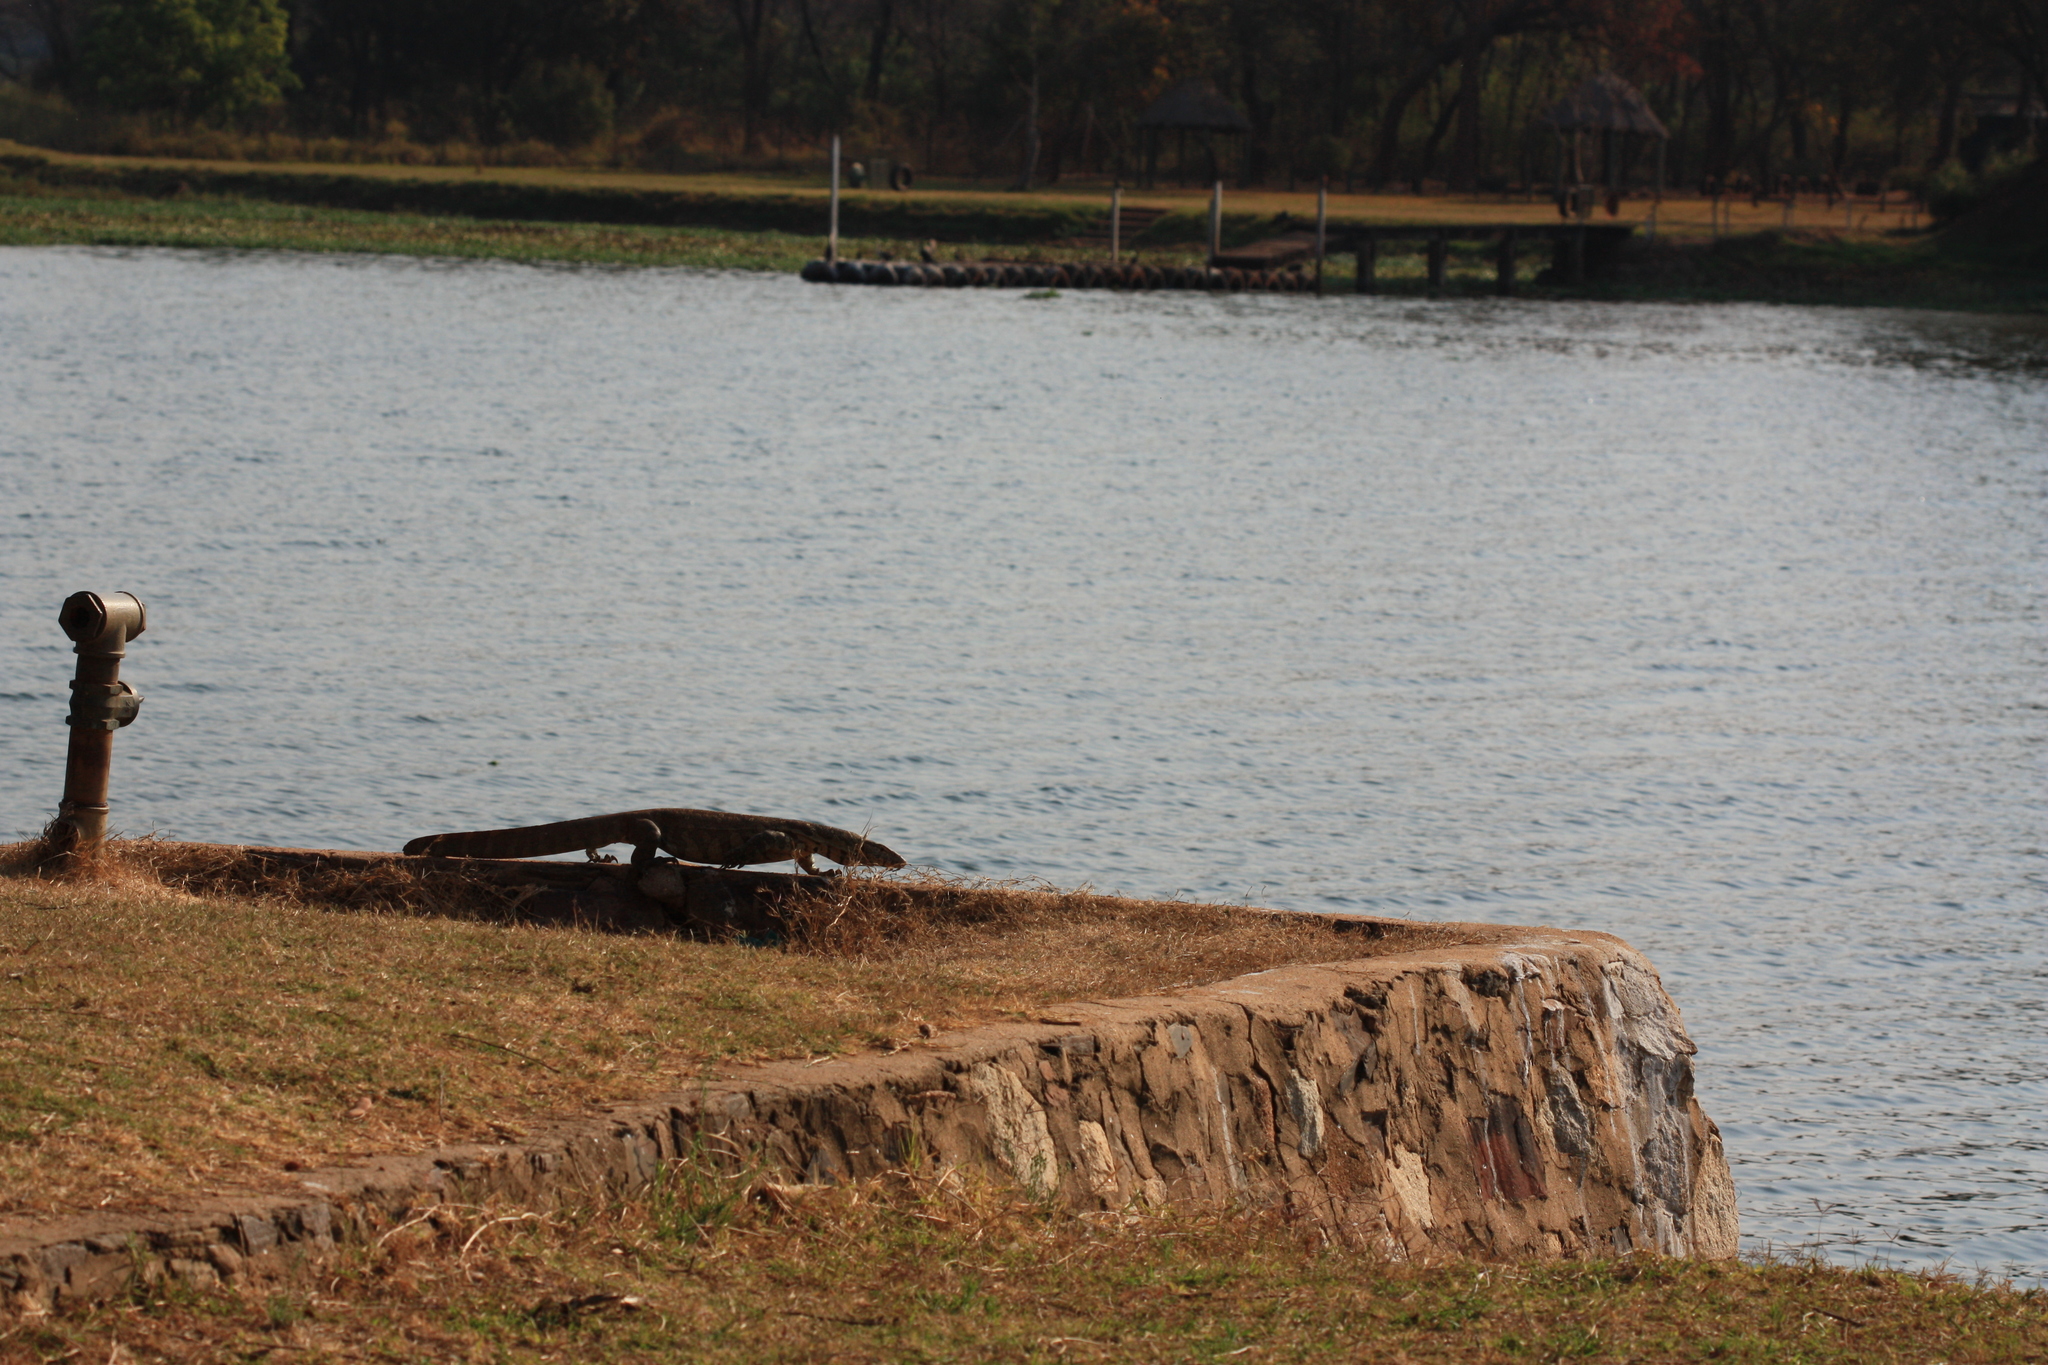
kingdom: Animalia
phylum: Chordata
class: Squamata
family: Varanidae
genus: Varanus
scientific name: Varanus niloticus
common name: Nile monitor
